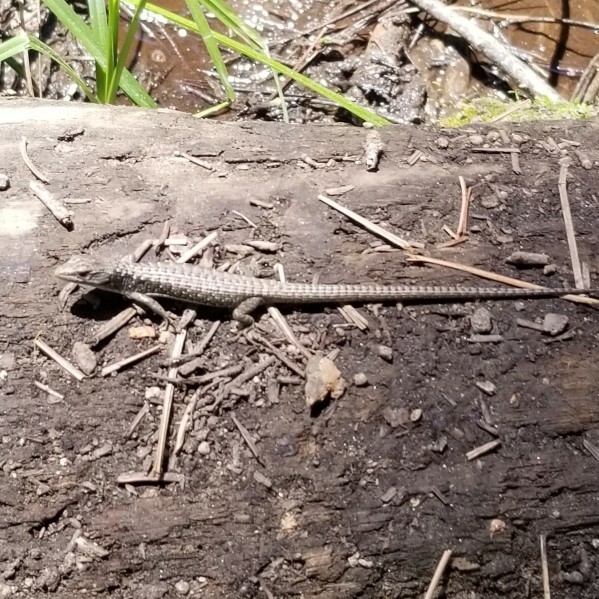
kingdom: Animalia
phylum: Chordata
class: Squamata
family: Anguidae
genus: Elgaria
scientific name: Elgaria coerulea
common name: Northern alligator lizard
